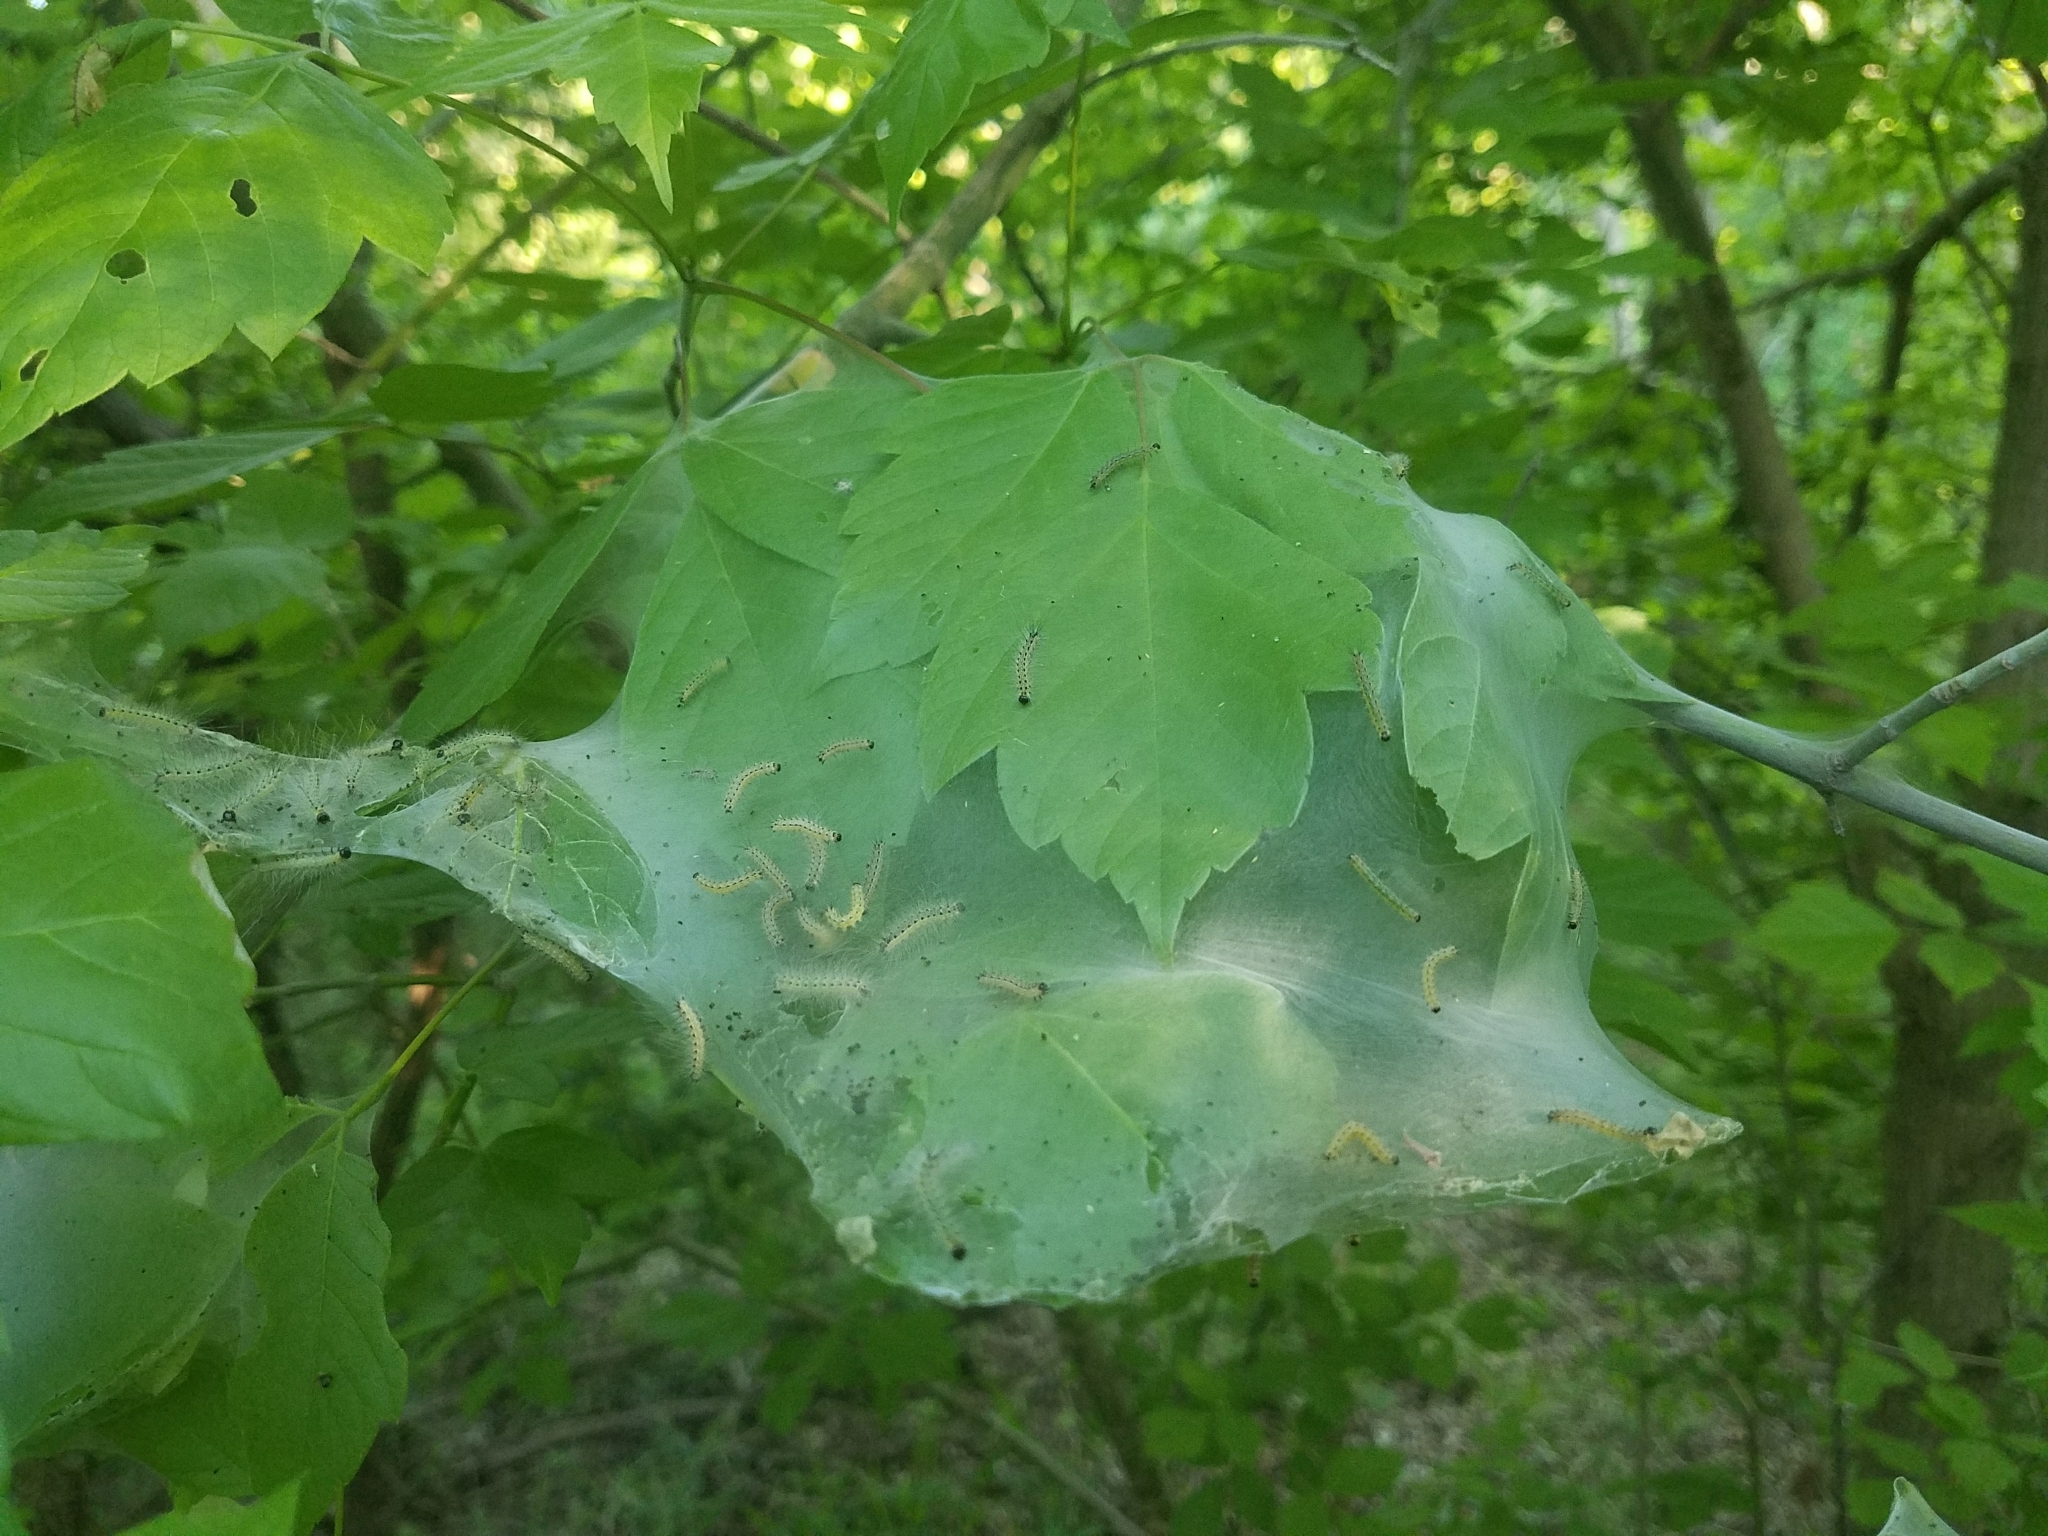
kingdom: Animalia
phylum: Arthropoda
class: Insecta
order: Lepidoptera
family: Erebidae
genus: Hyphantria
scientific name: Hyphantria cunea
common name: American white moth
